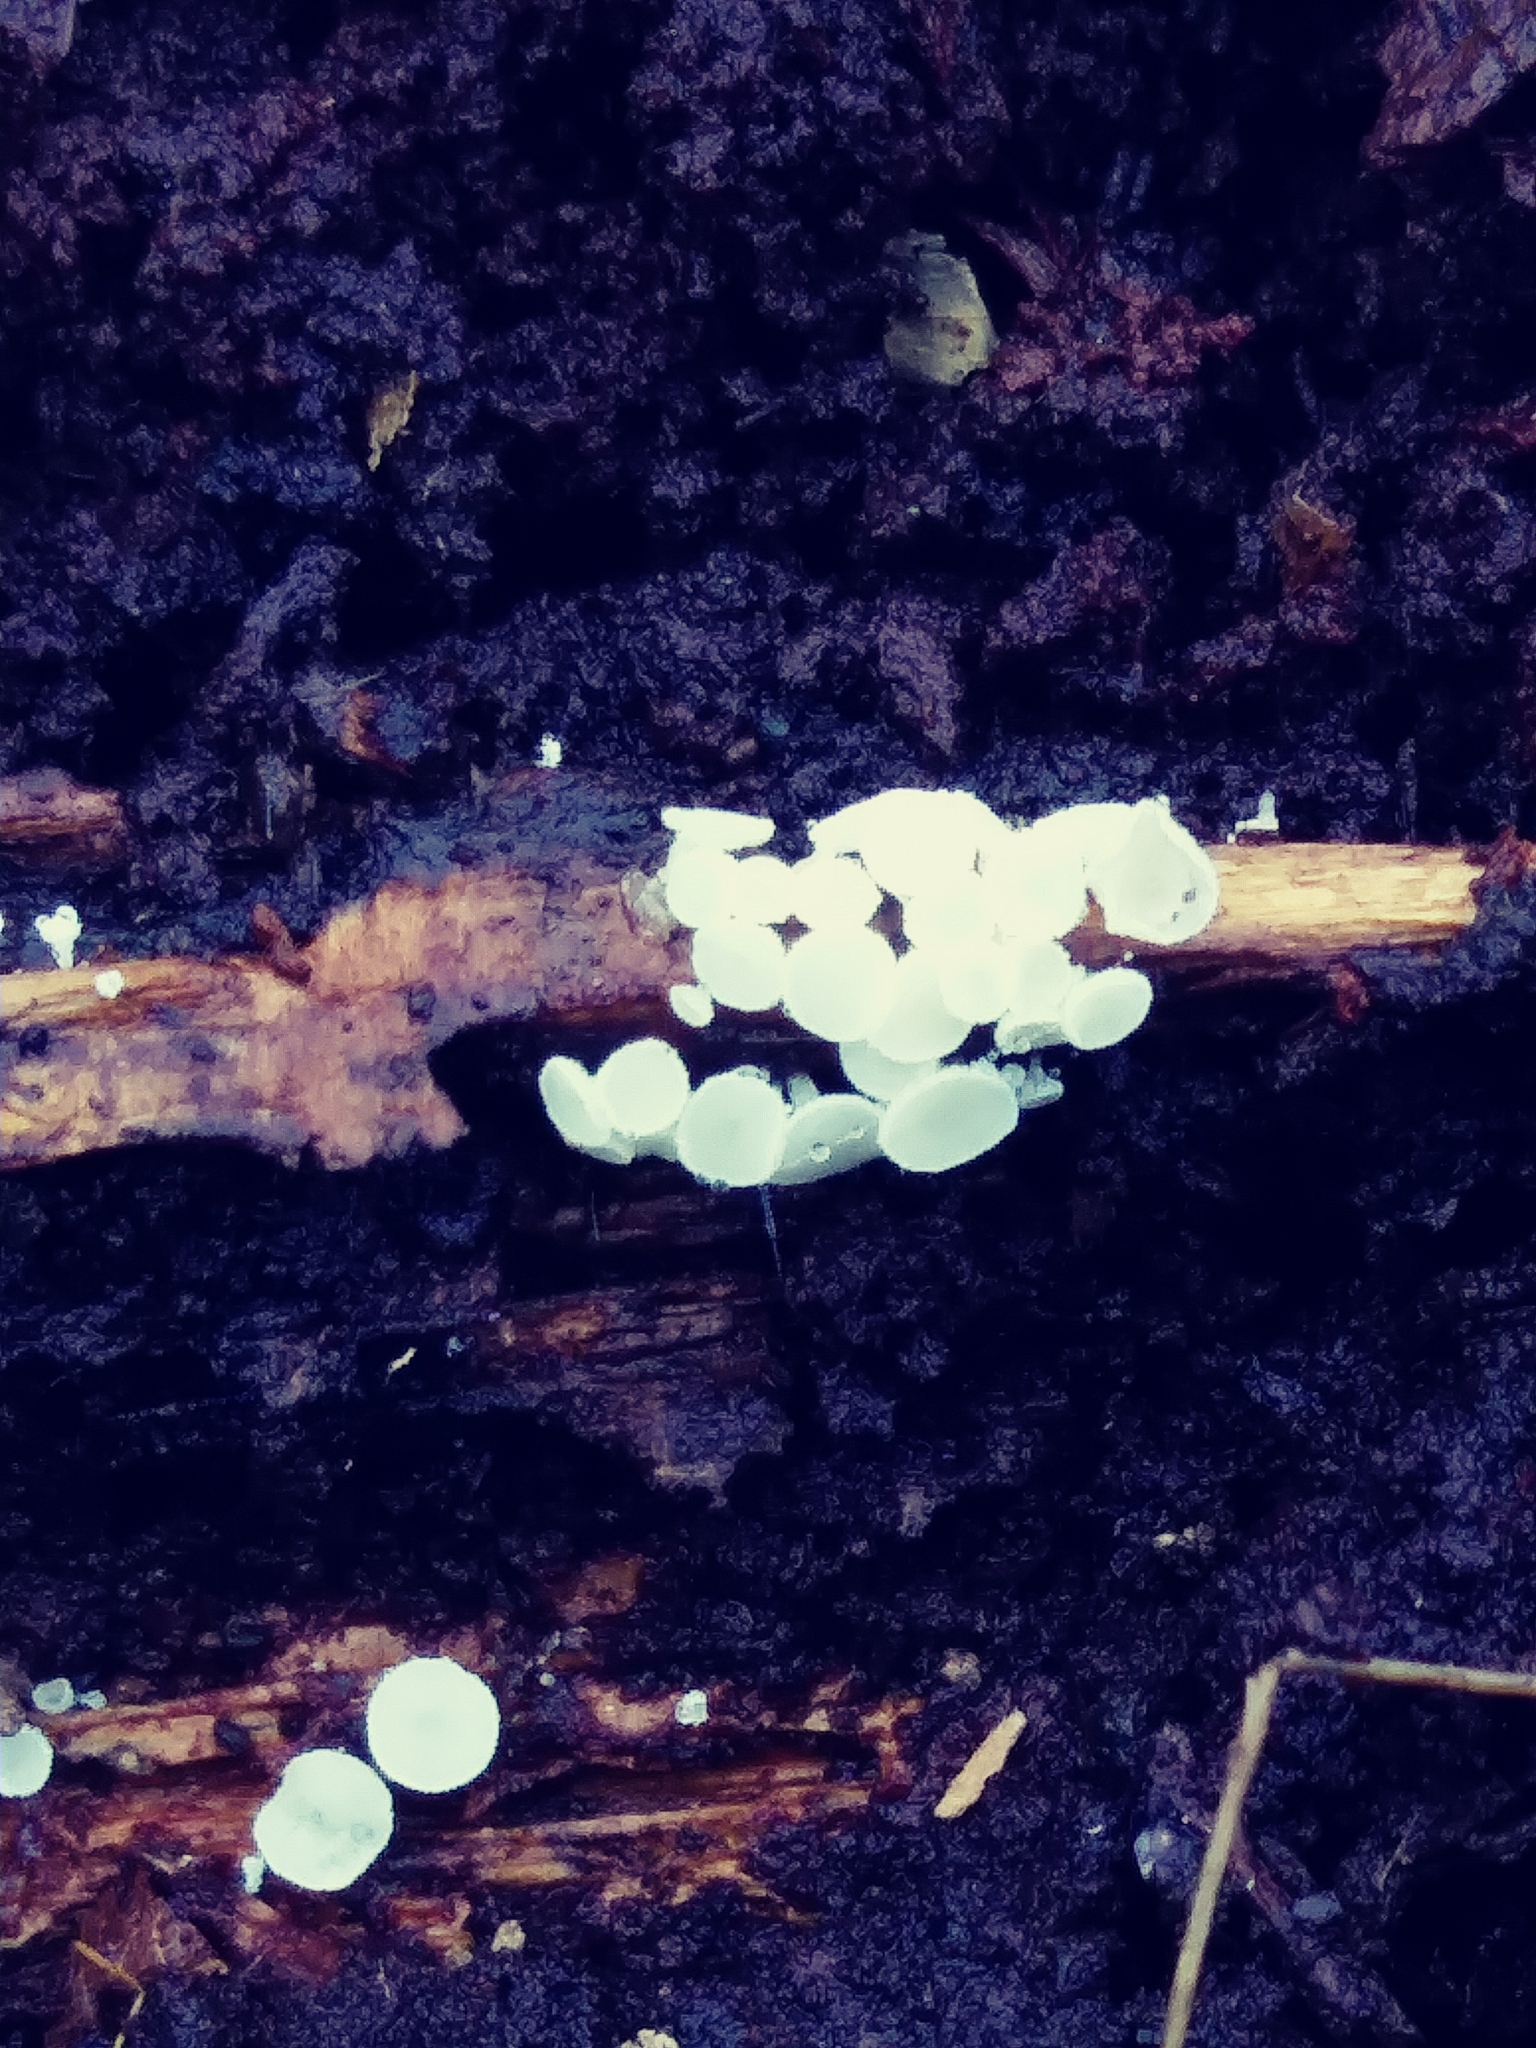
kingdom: Fungi
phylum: Ascomycota
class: Leotiomycetes
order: Helotiales
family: Lachnaceae
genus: Lachnum
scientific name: Lachnum virgineum
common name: Snowy disco
